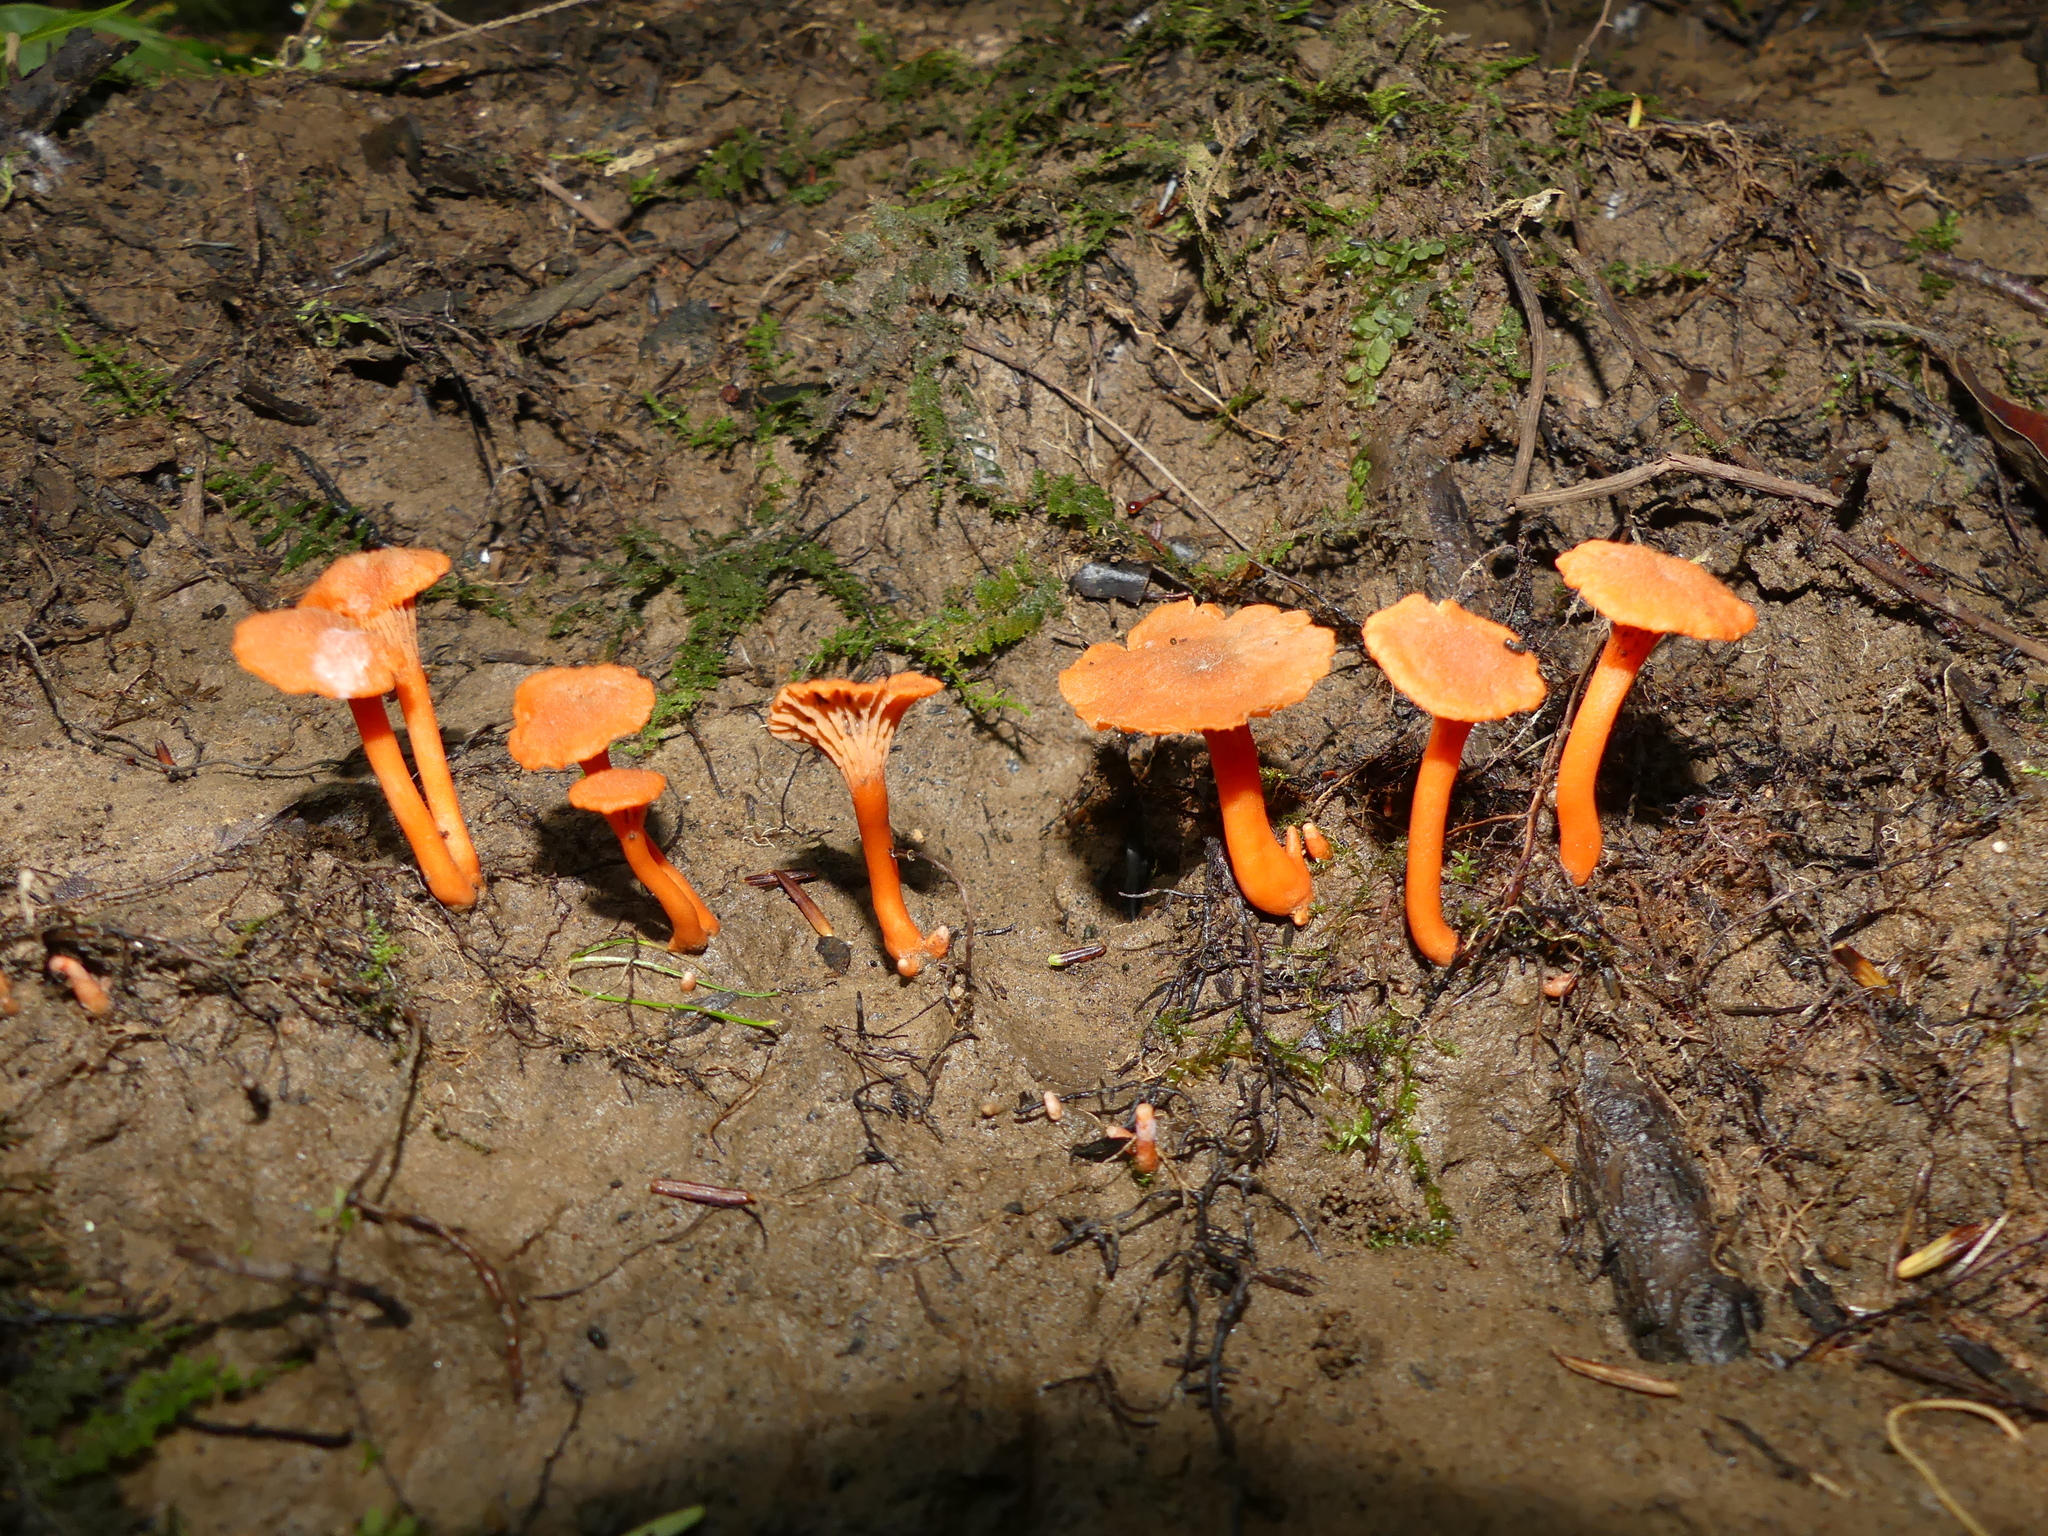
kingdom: Fungi
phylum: Basidiomycota
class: Agaricomycetes
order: Cantharellales
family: Hydnaceae
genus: Cantharellus
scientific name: Cantharellus cinnabarinus
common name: Cinnabar chanterelle
